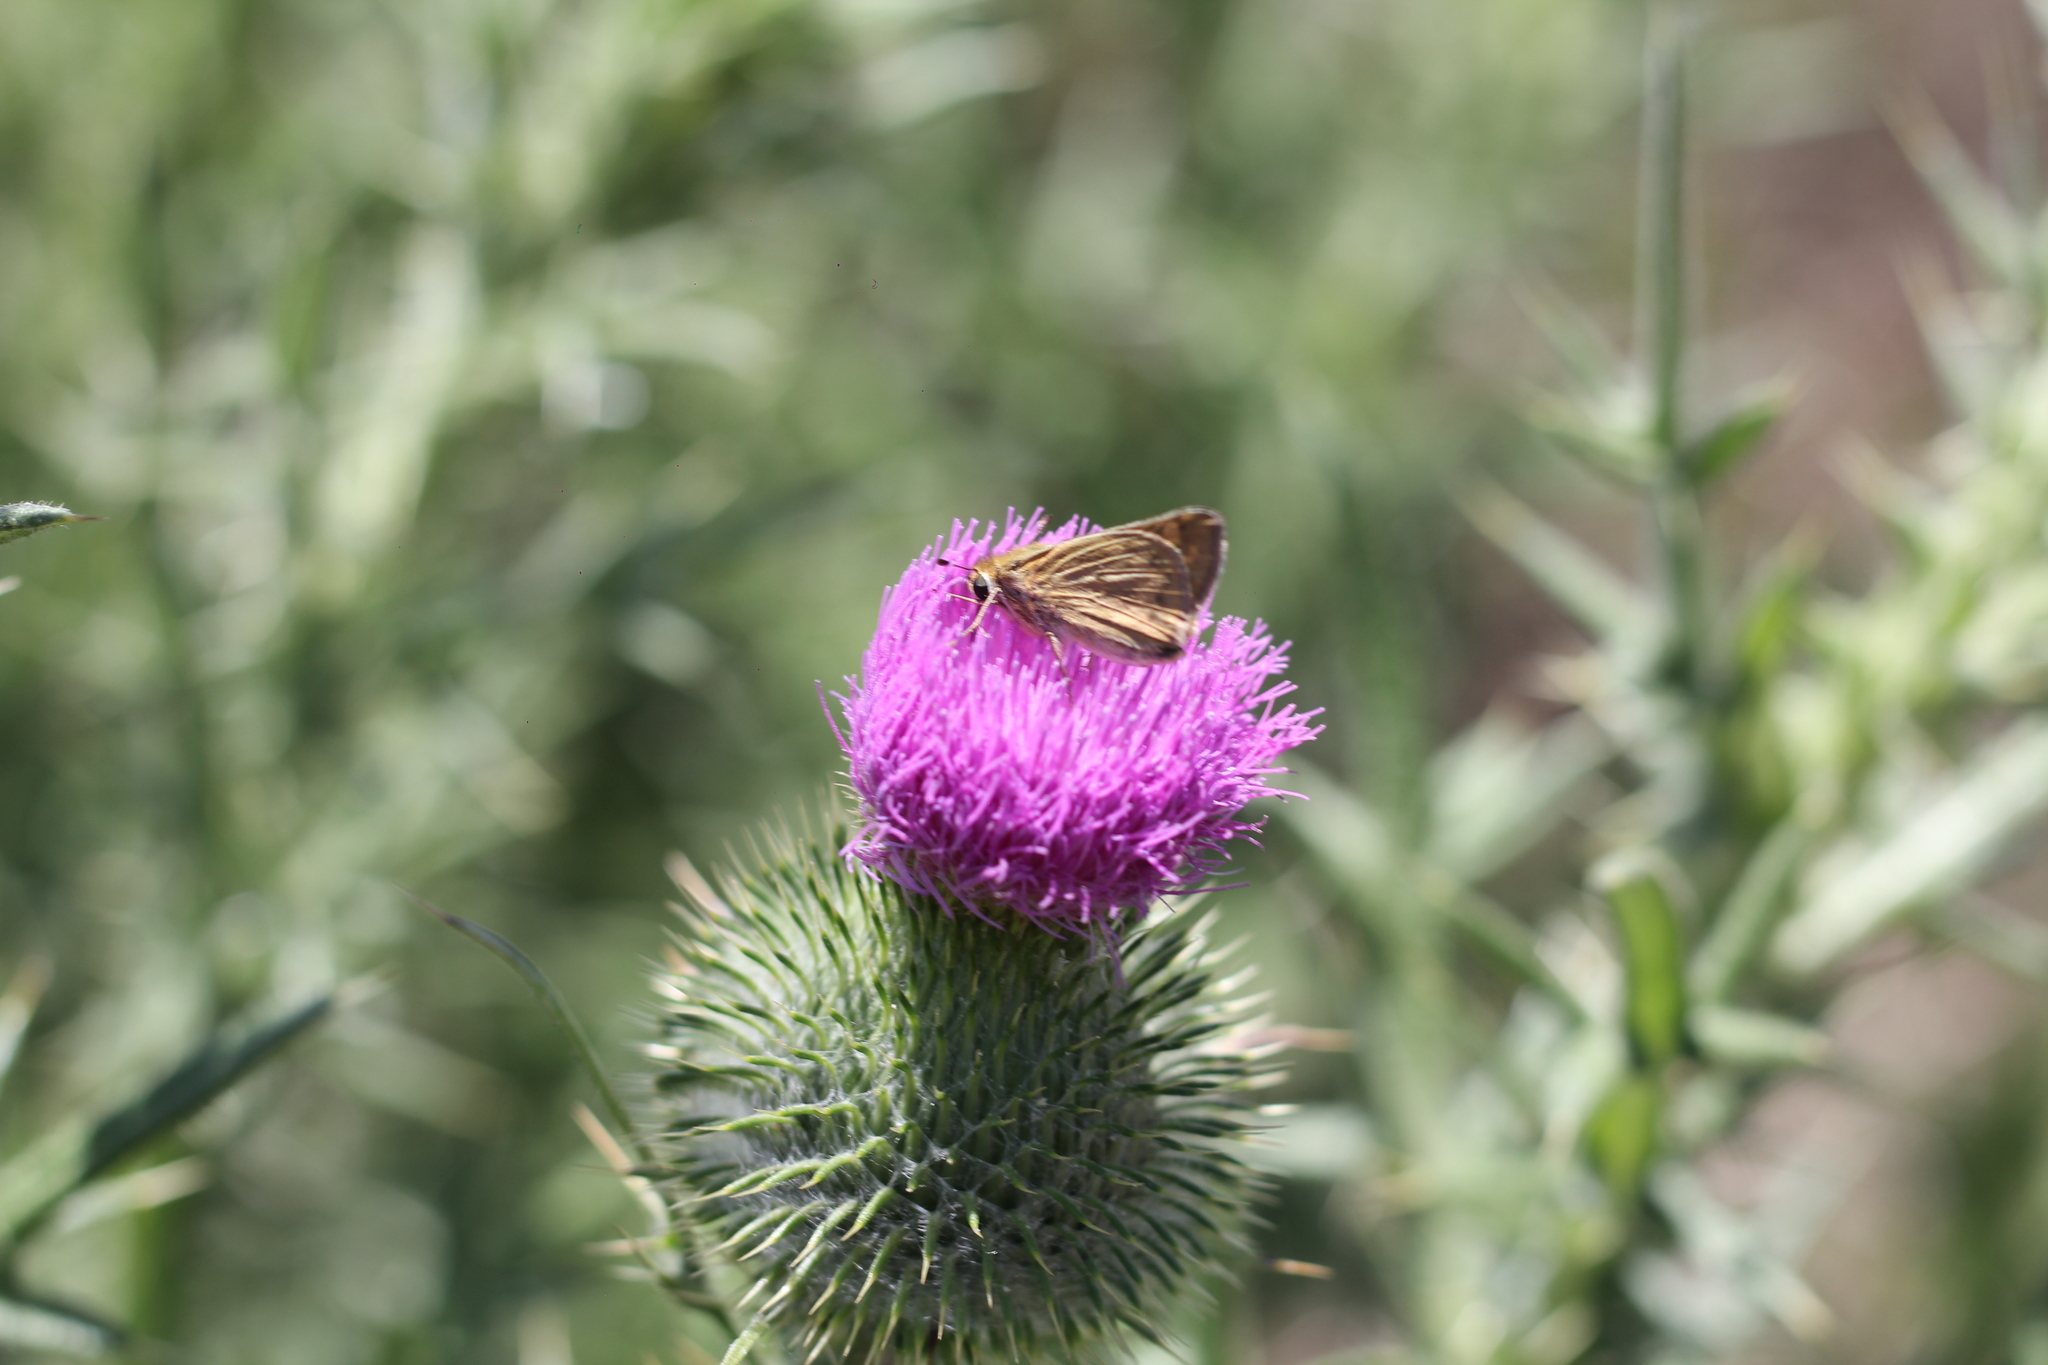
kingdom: Animalia
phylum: Arthropoda
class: Insecta
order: Lepidoptera
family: Hesperiidae
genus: Hylephila
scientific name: Hylephila phyleus
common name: Fiery skipper
